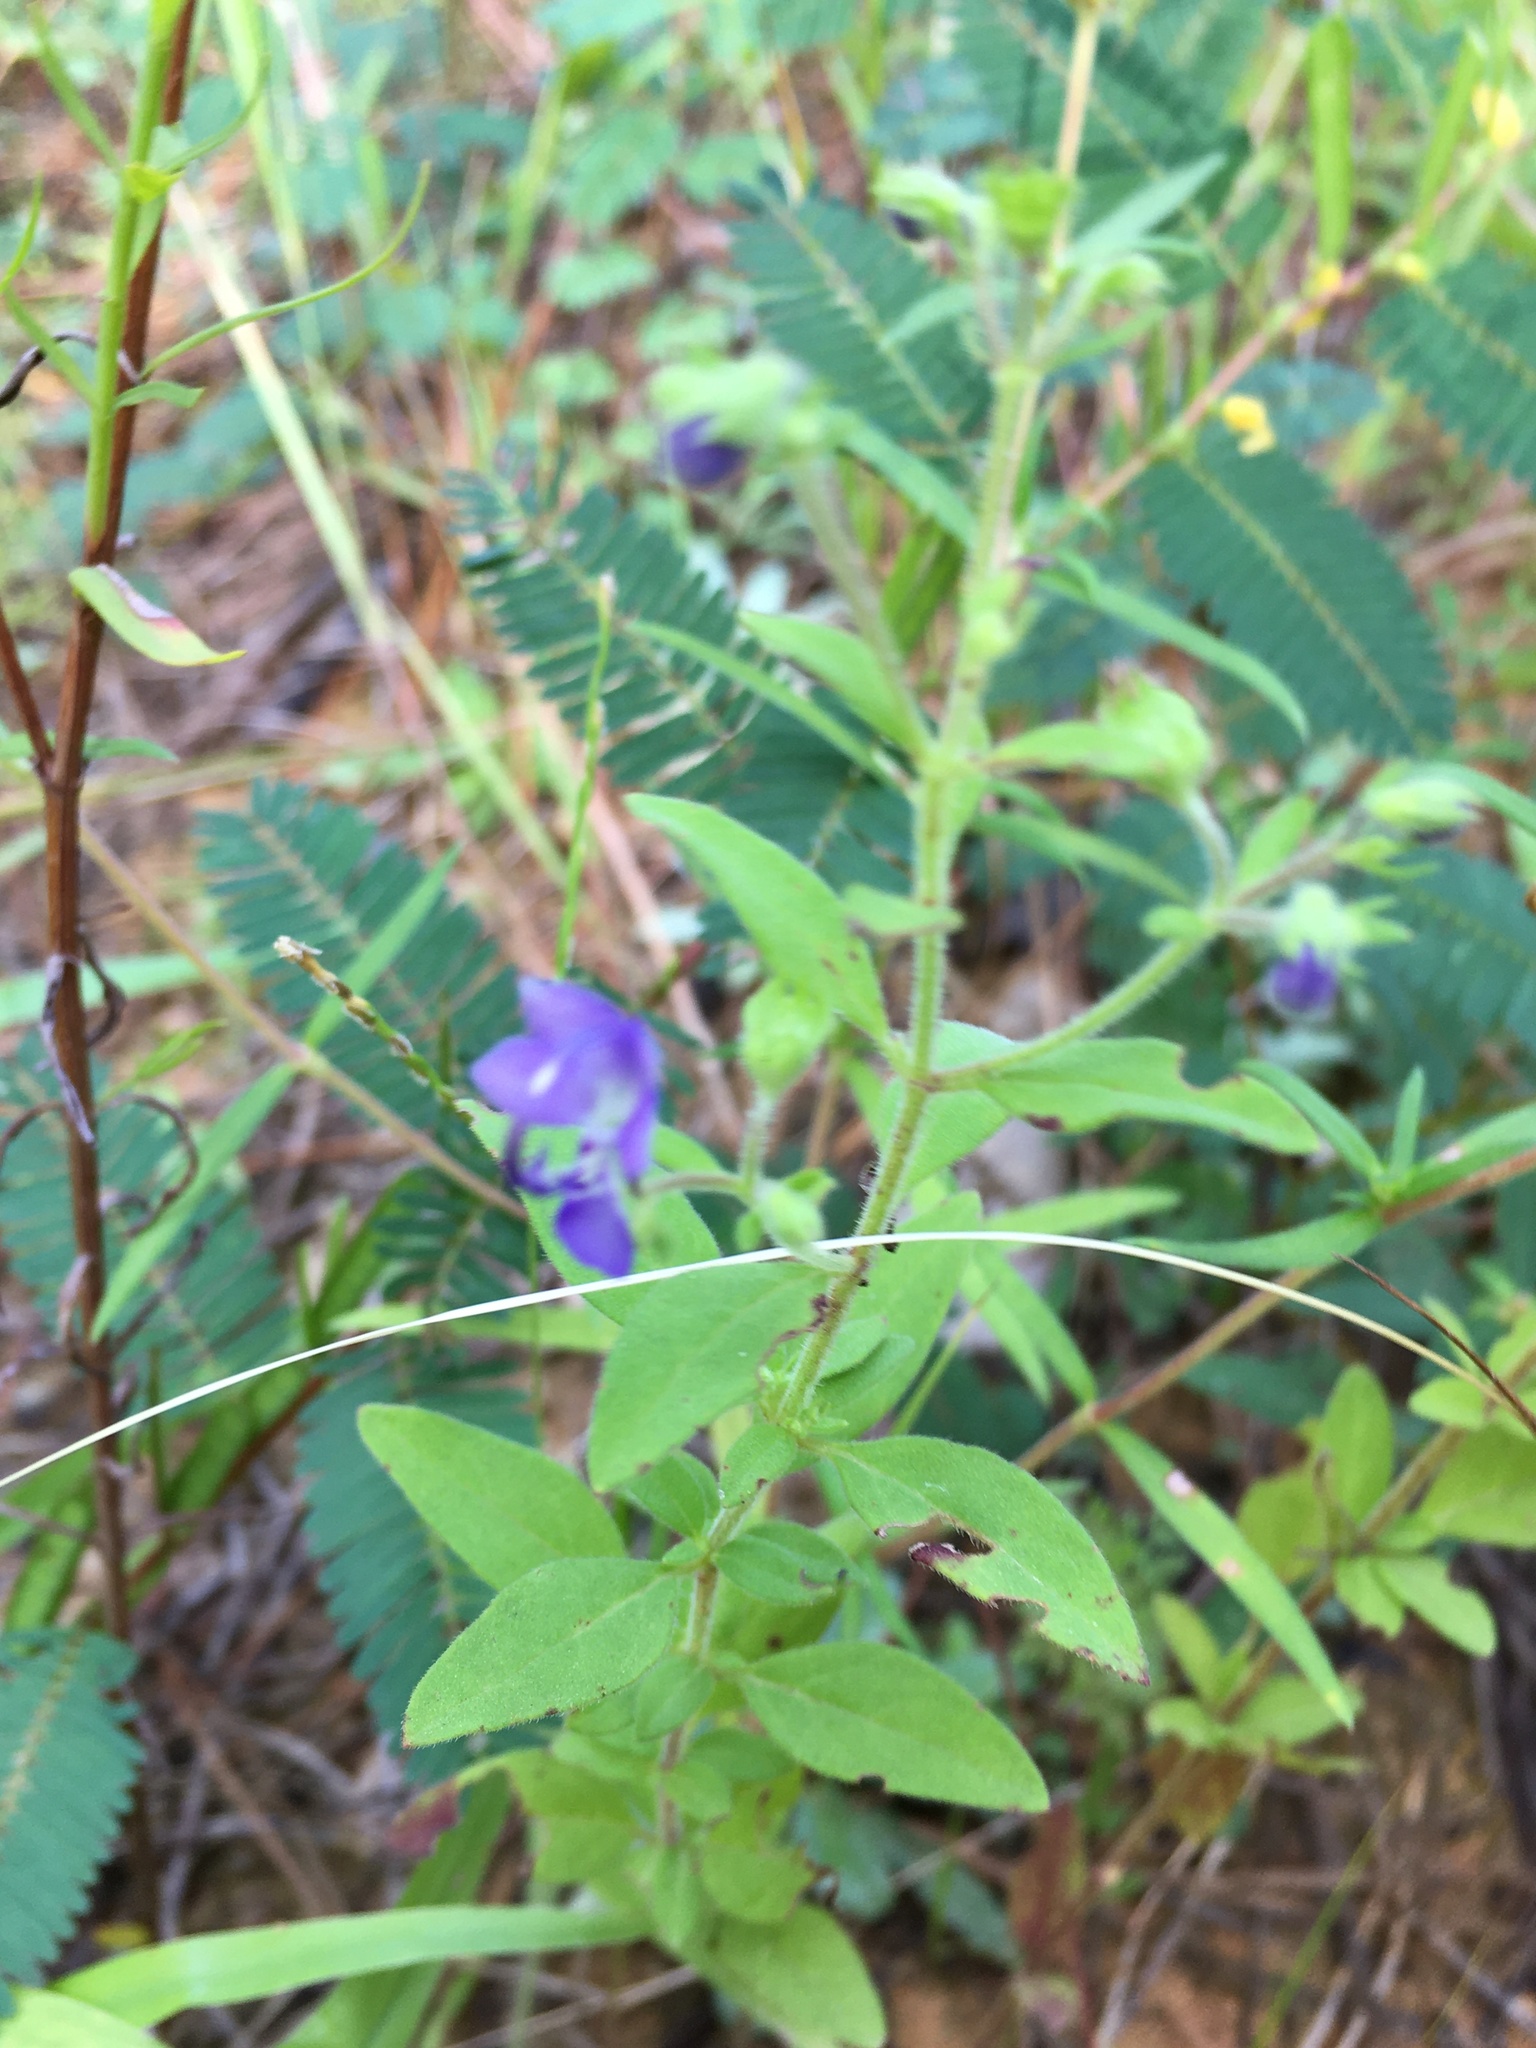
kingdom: Plantae
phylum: Tracheophyta
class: Magnoliopsida
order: Lamiales
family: Lamiaceae
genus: Trichostema
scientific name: Trichostema dichotomum
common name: Bastard pennyroyal
